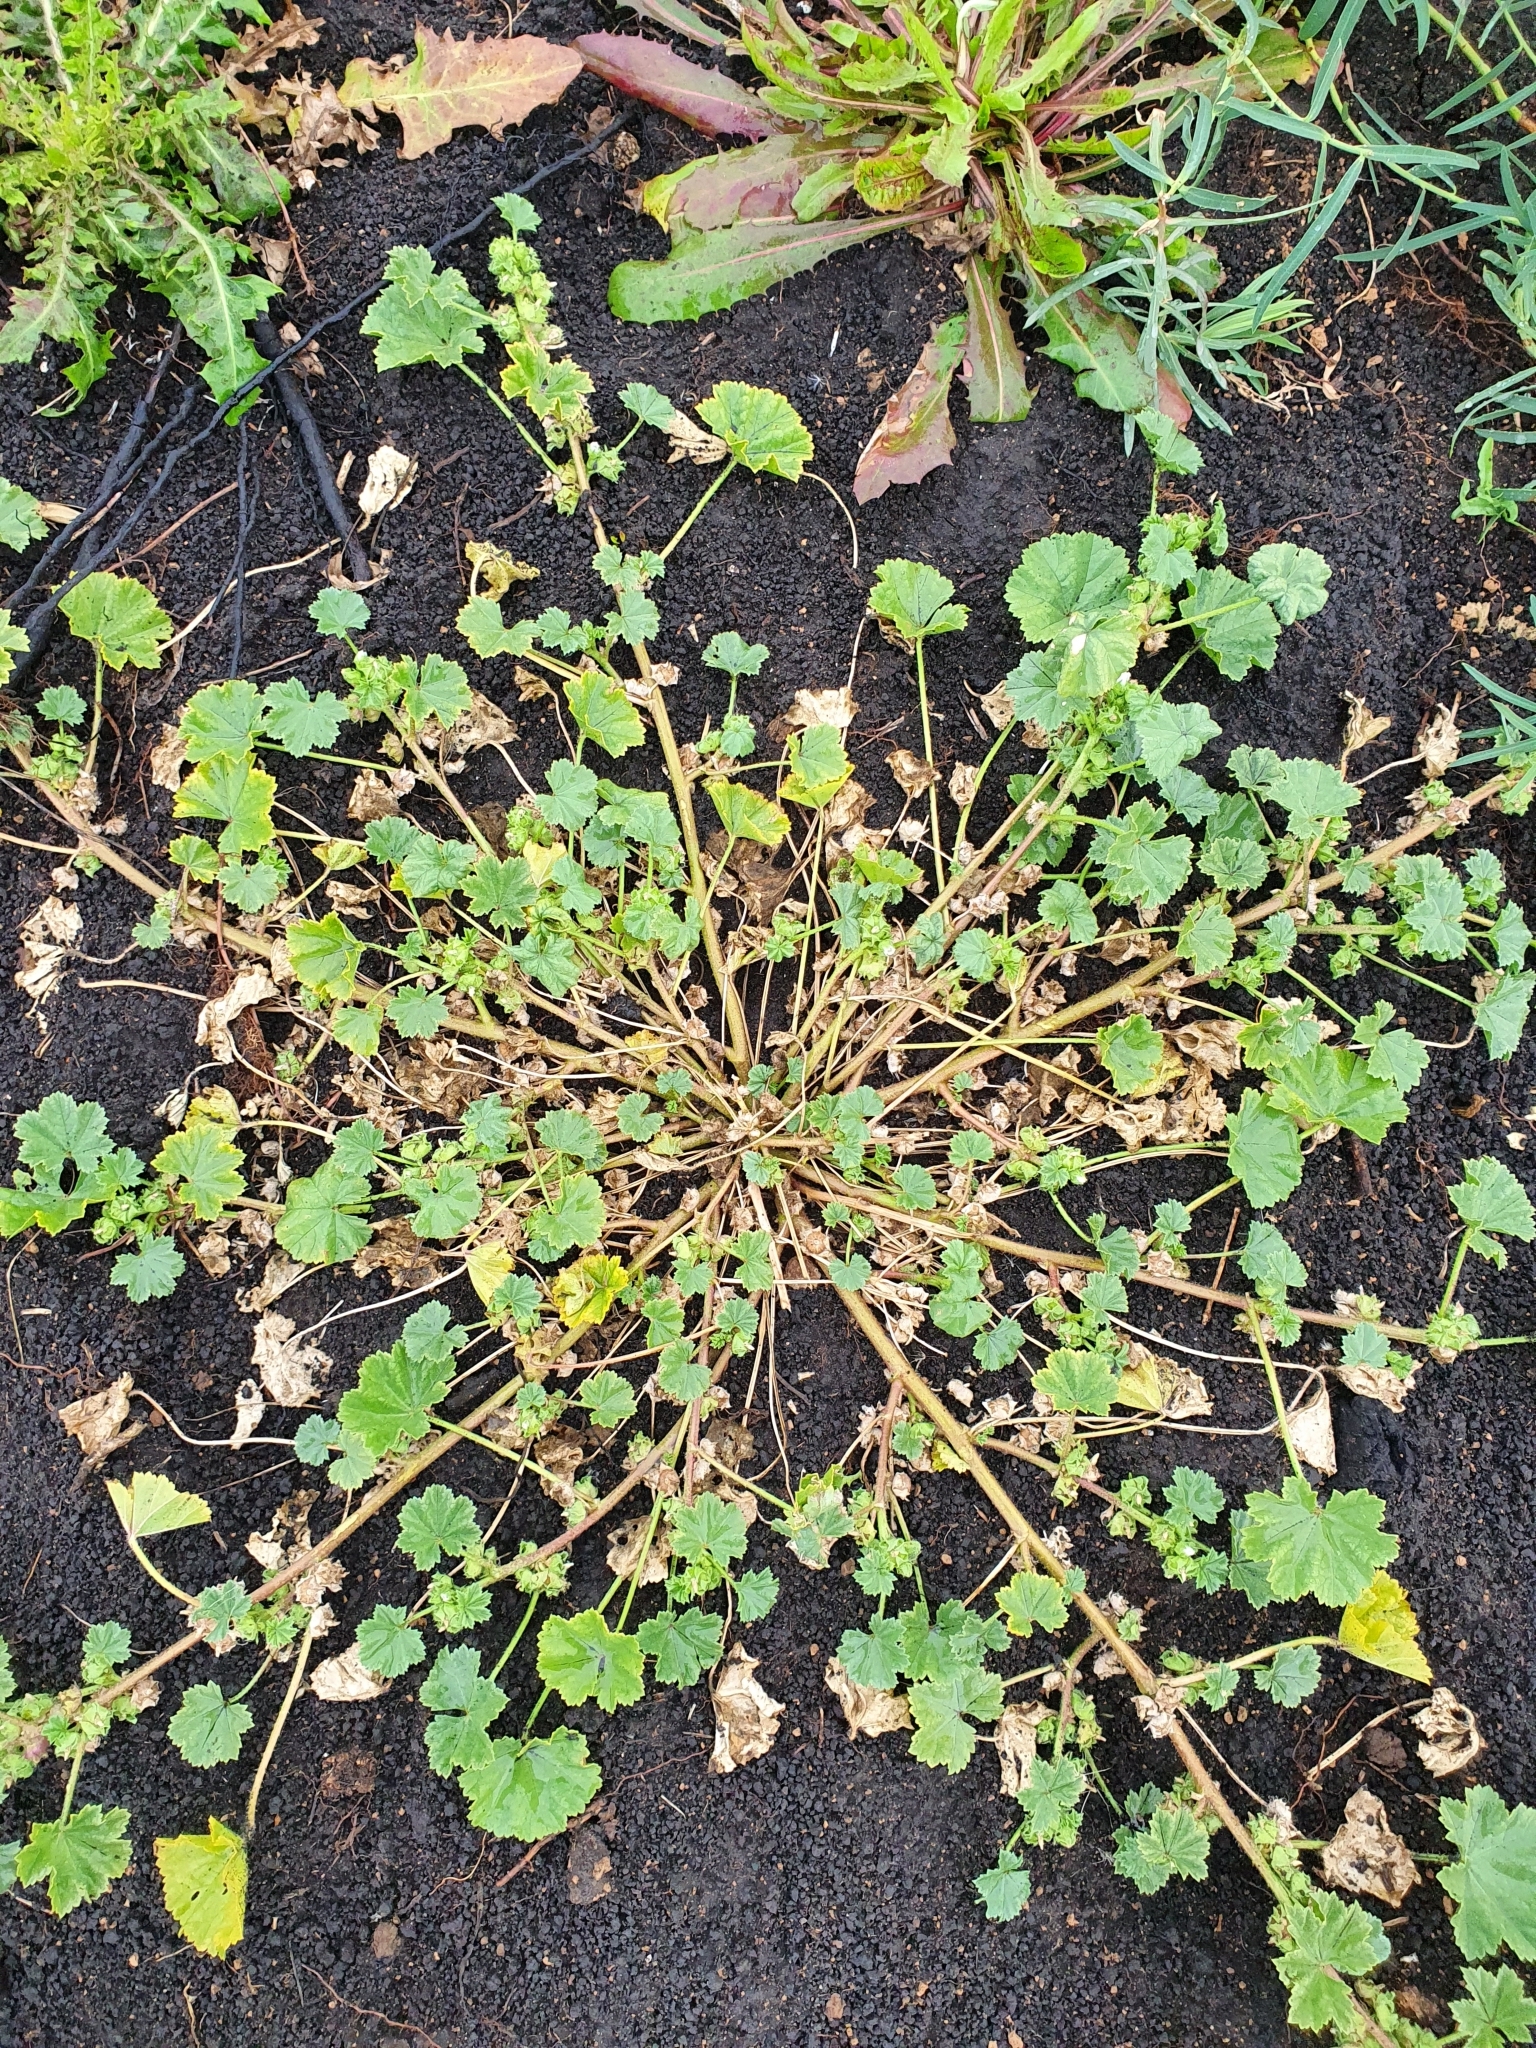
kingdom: Plantae
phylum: Tracheophyta
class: Magnoliopsida
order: Malvales
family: Malvaceae
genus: Malva
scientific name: Malva pusilla
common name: Small mallow
